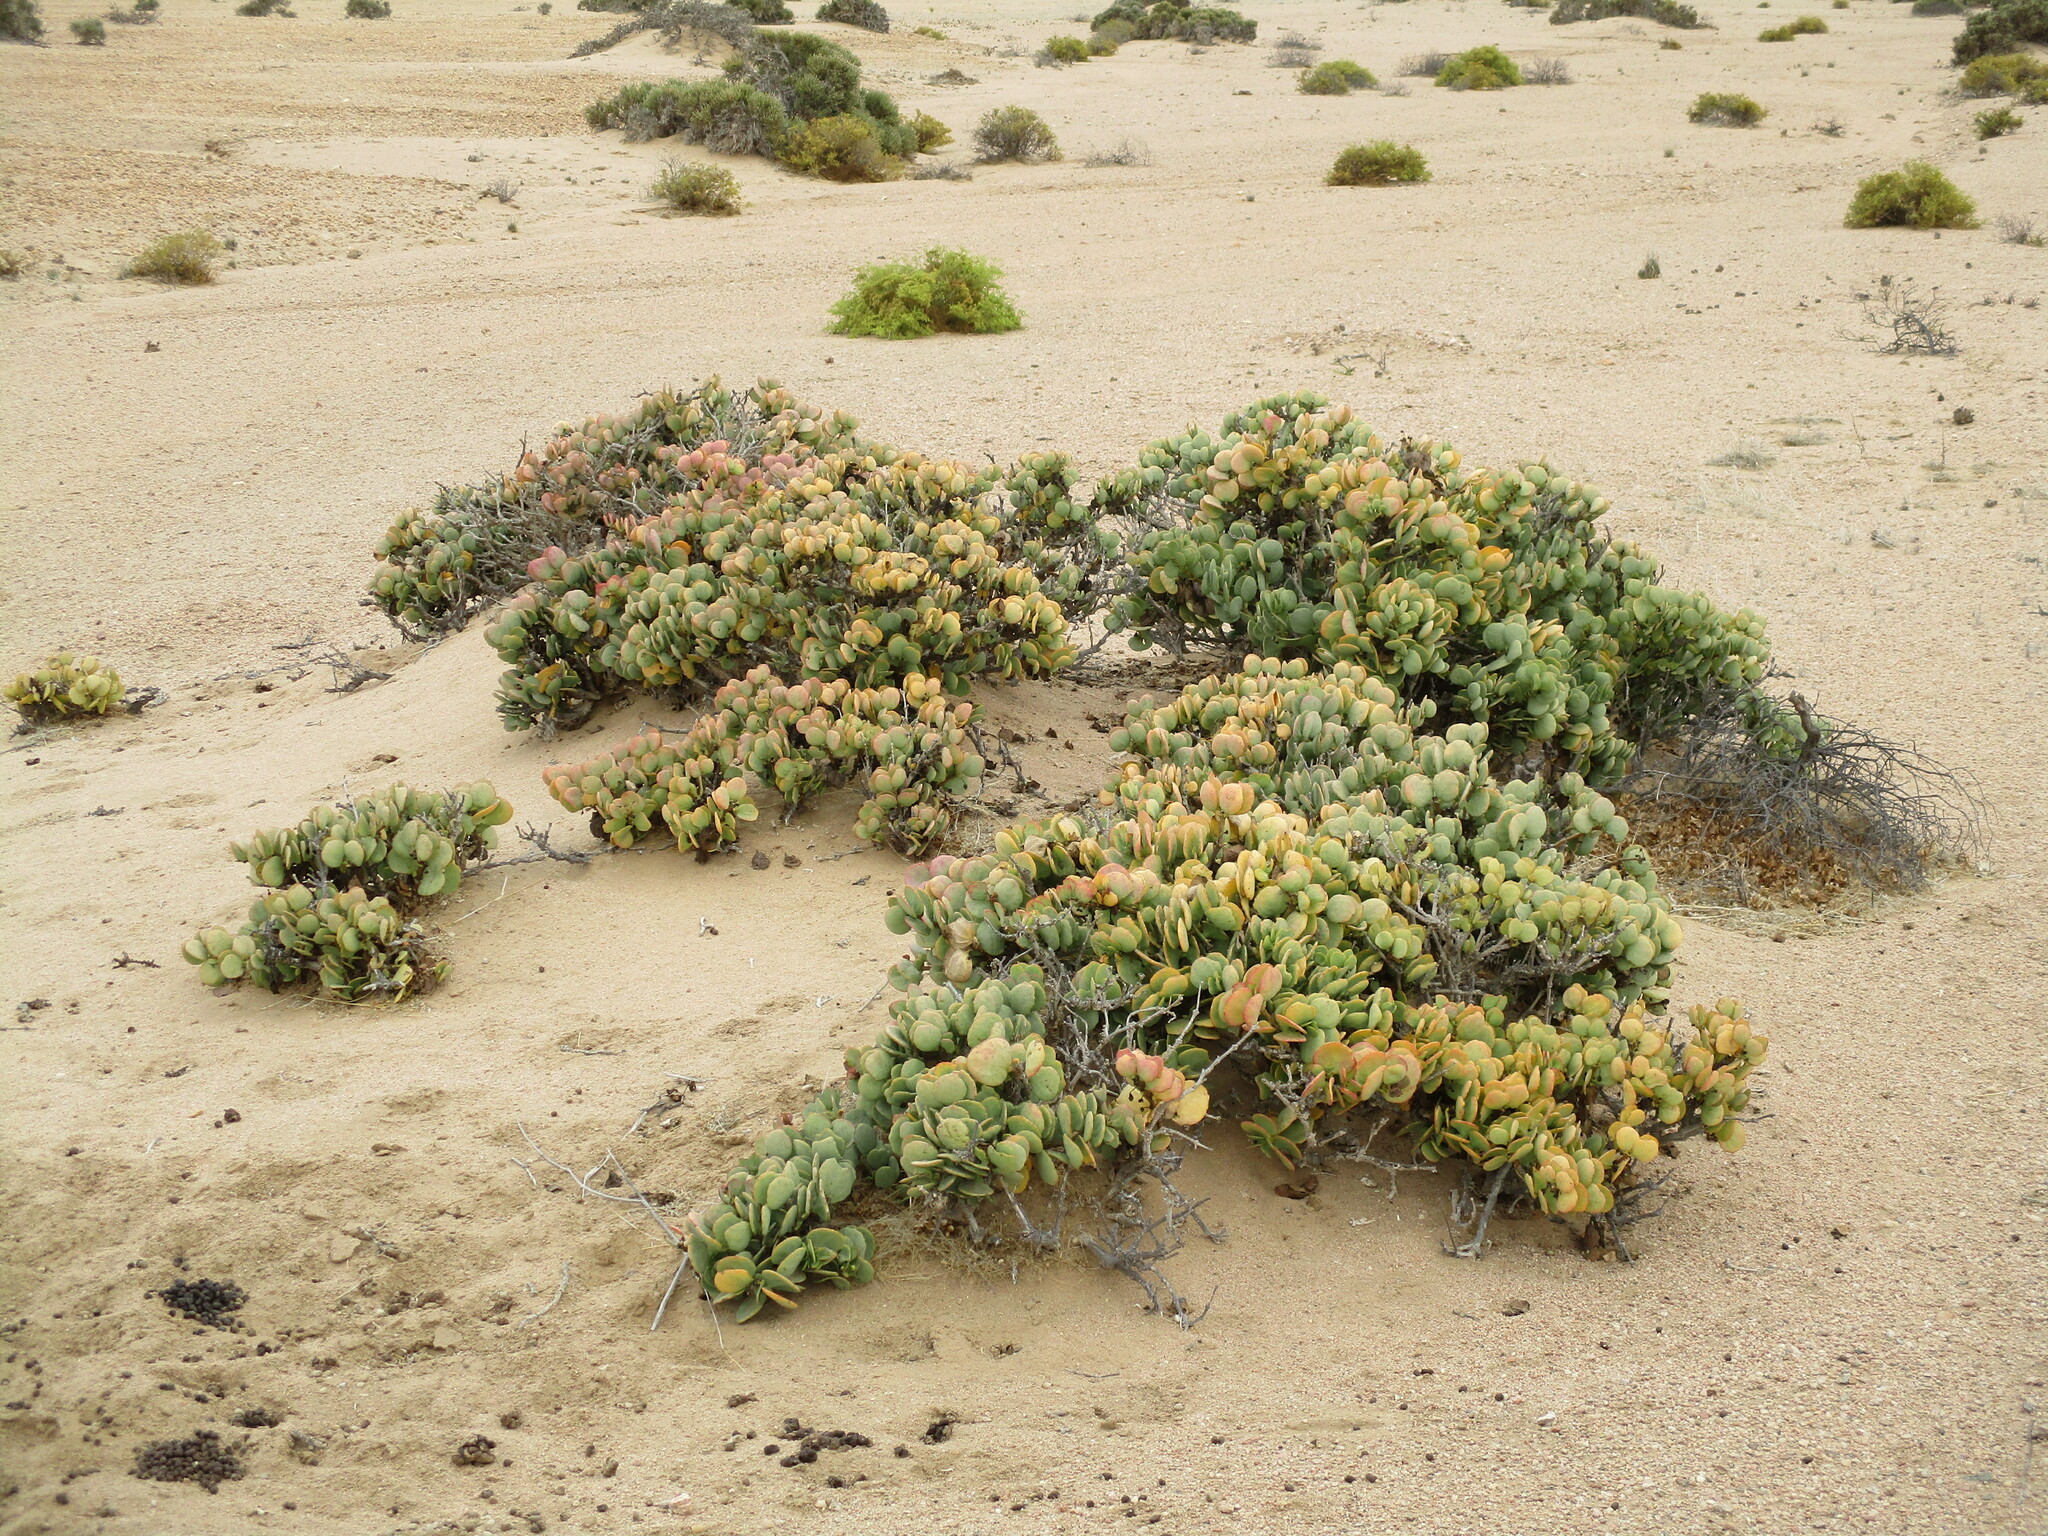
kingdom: Plantae
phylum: Tracheophyta
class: Magnoliopsida
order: Zygophyllales
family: Zygophyllaceae
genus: Tetraena
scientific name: Tetraena stapfii
